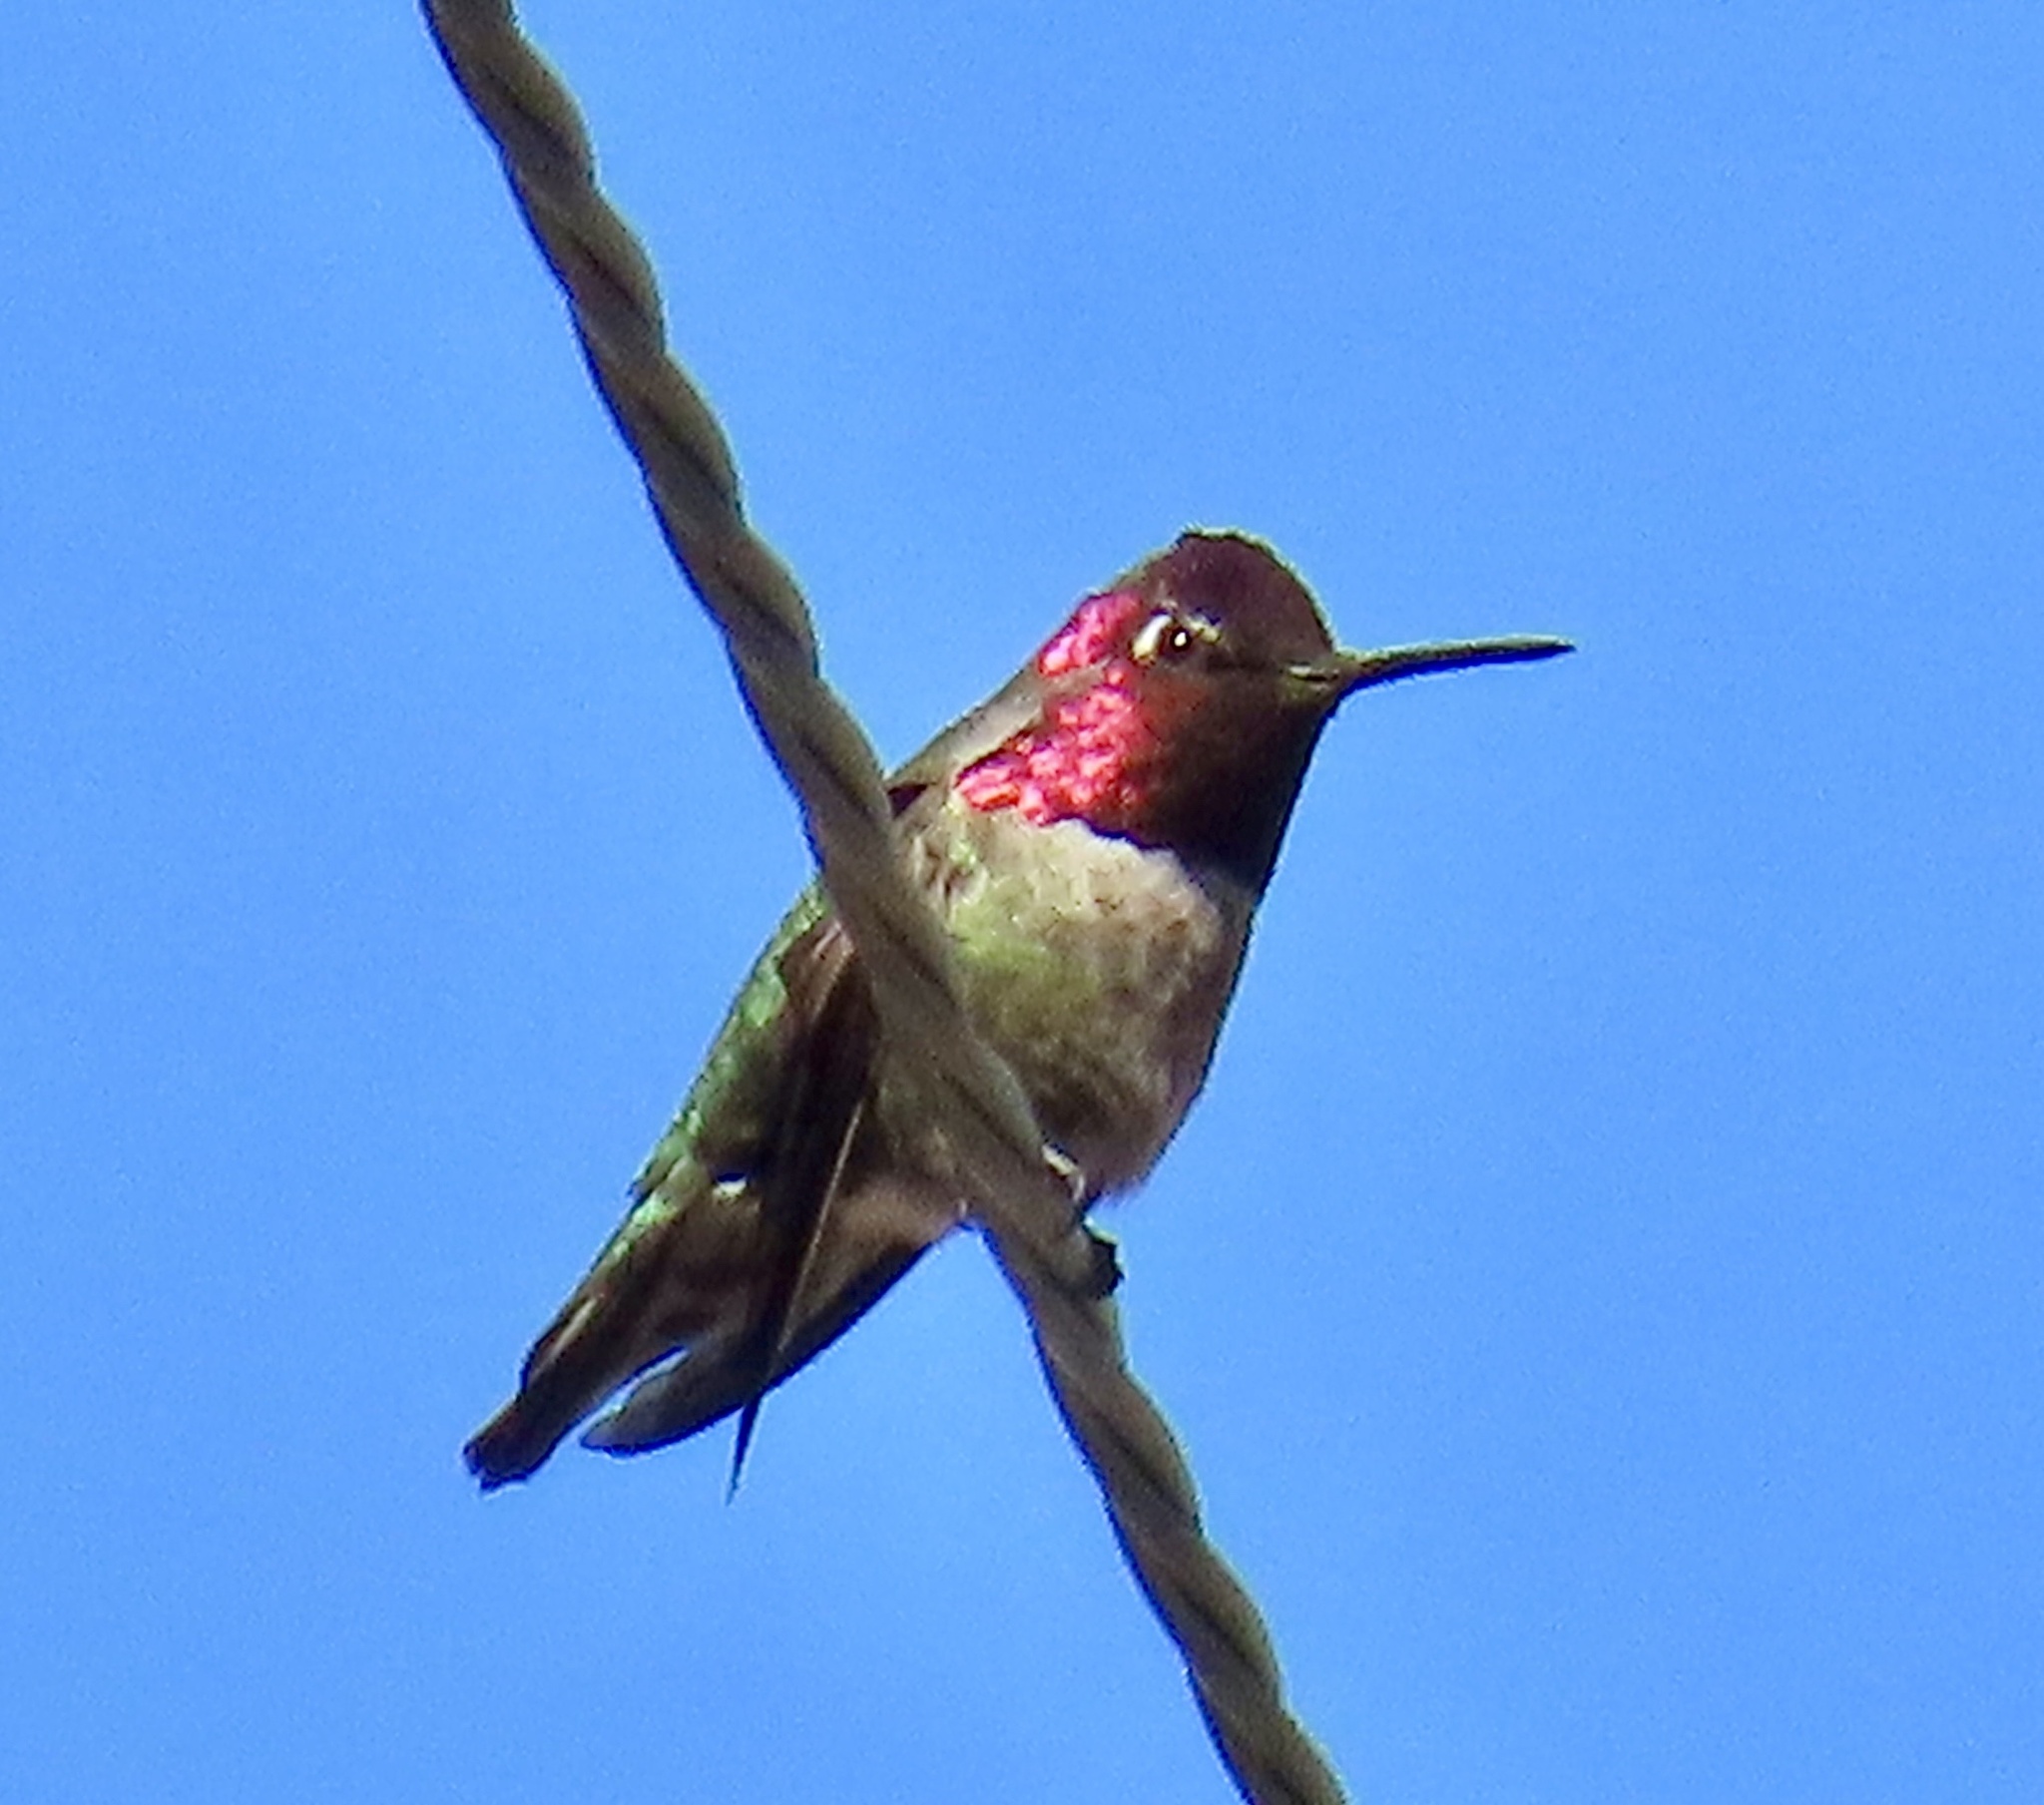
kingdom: Animalia
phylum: Chordata
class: Aves
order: Apodiformes
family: Trochilidae
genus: Calypte
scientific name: Calypte anna
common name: Anna's hummingbird
